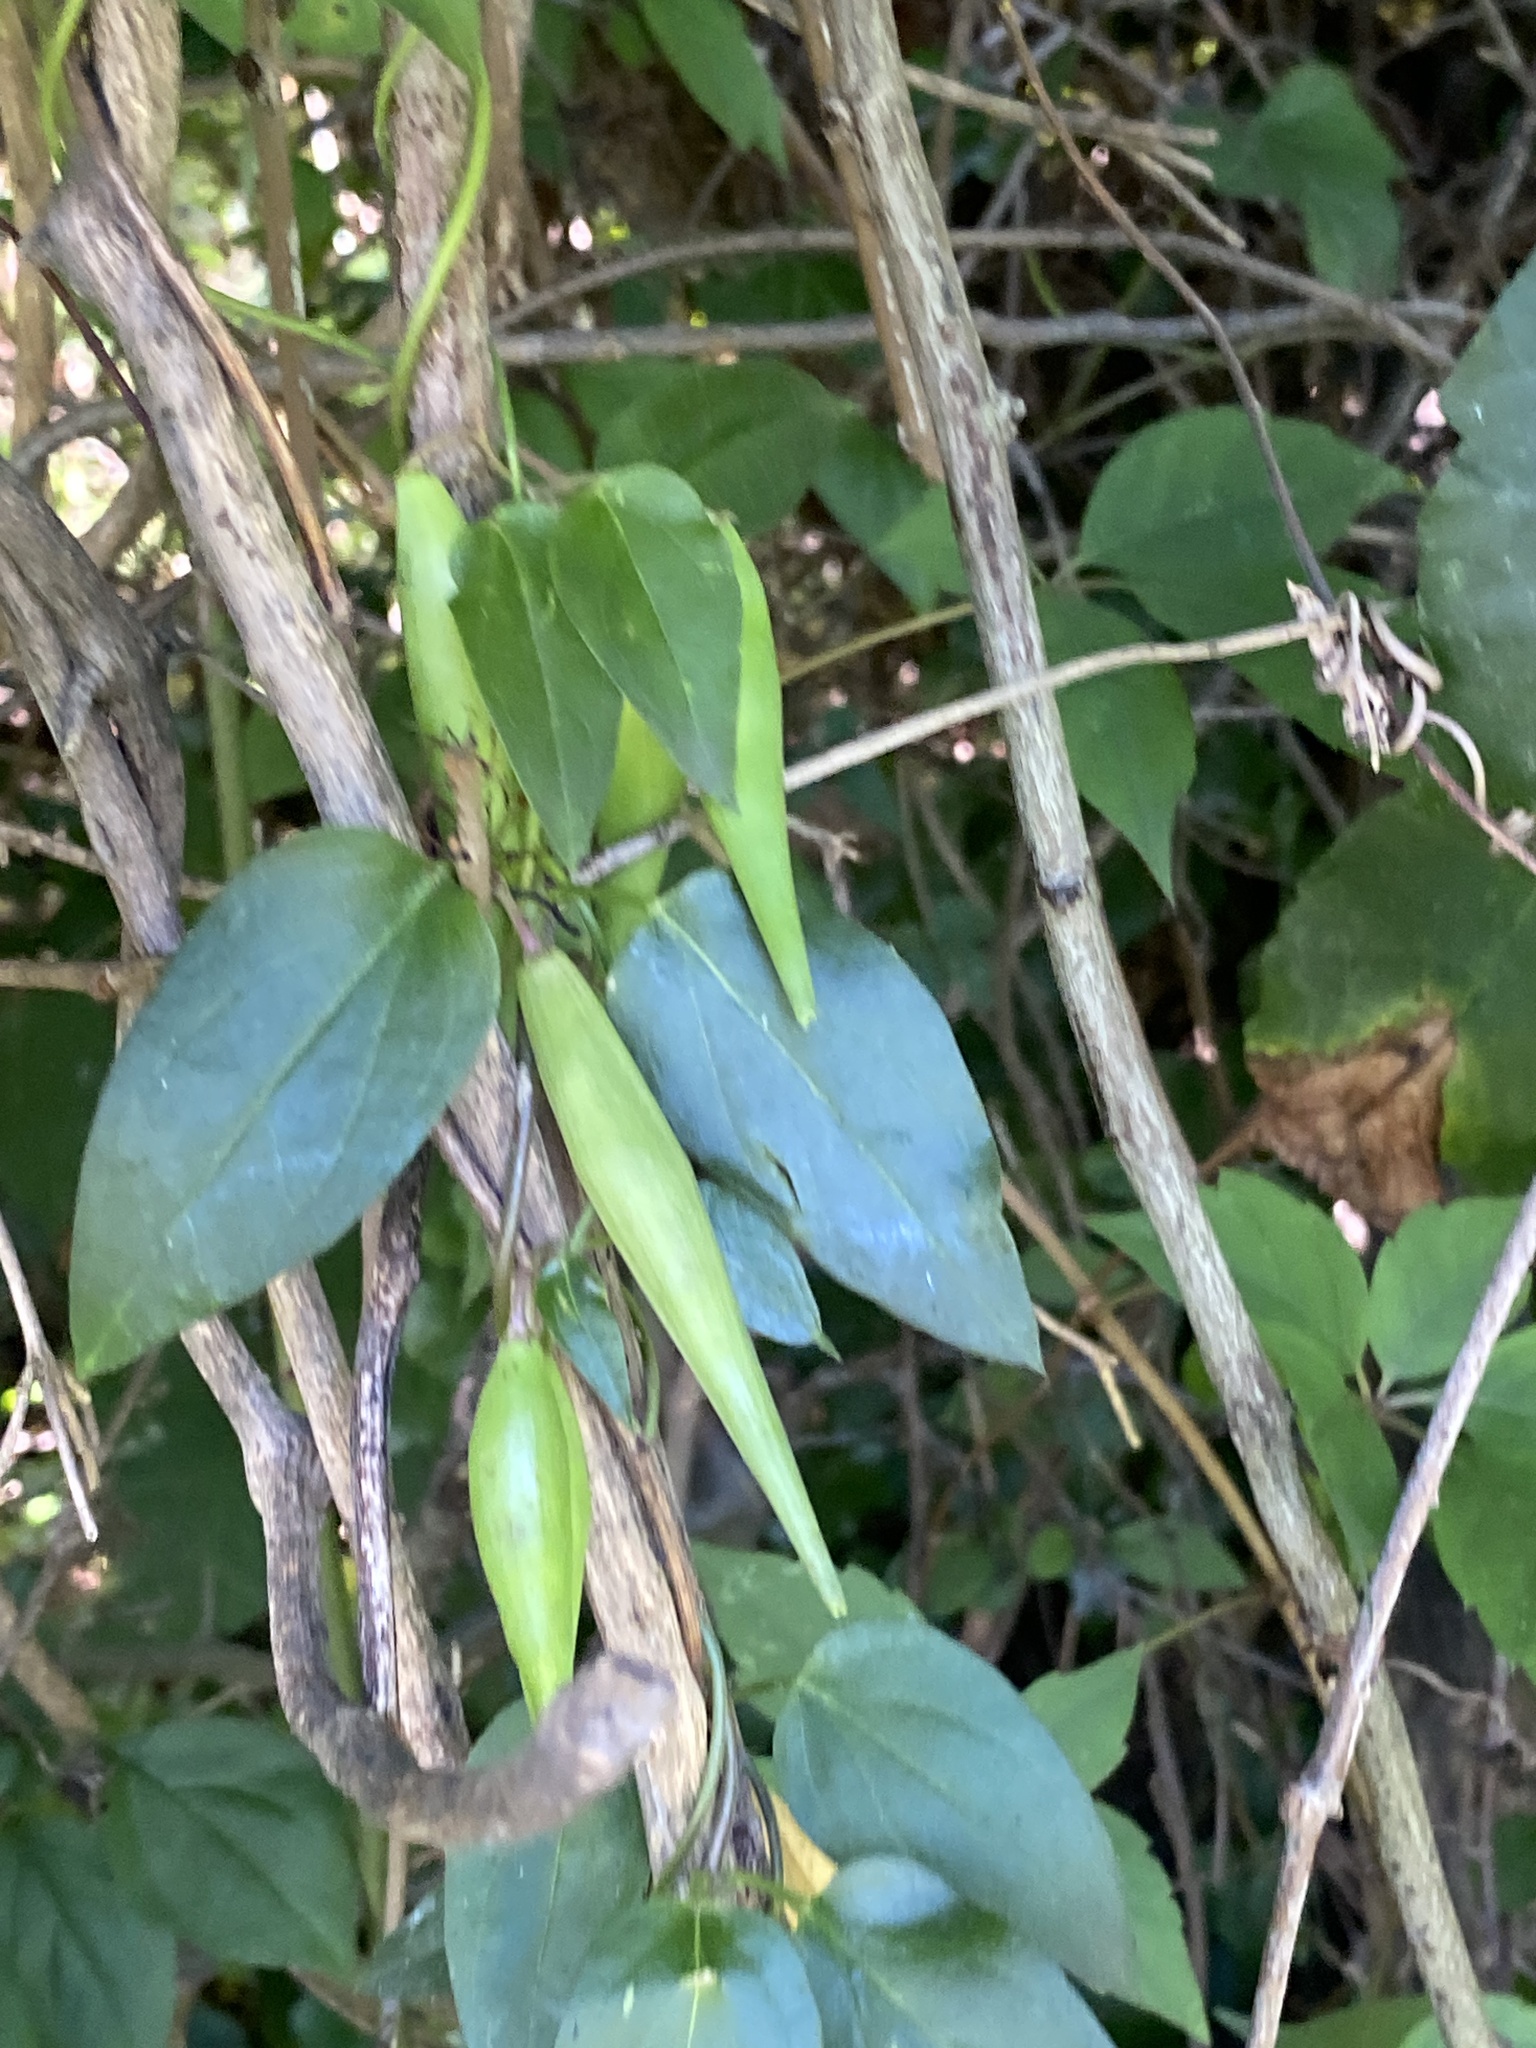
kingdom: Plantae
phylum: Tracheophyta
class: Magnoliopsida
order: Gentianales
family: Apocynaceae
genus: Vincetoxicum
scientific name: Vincetoxicum nigrum
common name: Black swallow-wort
